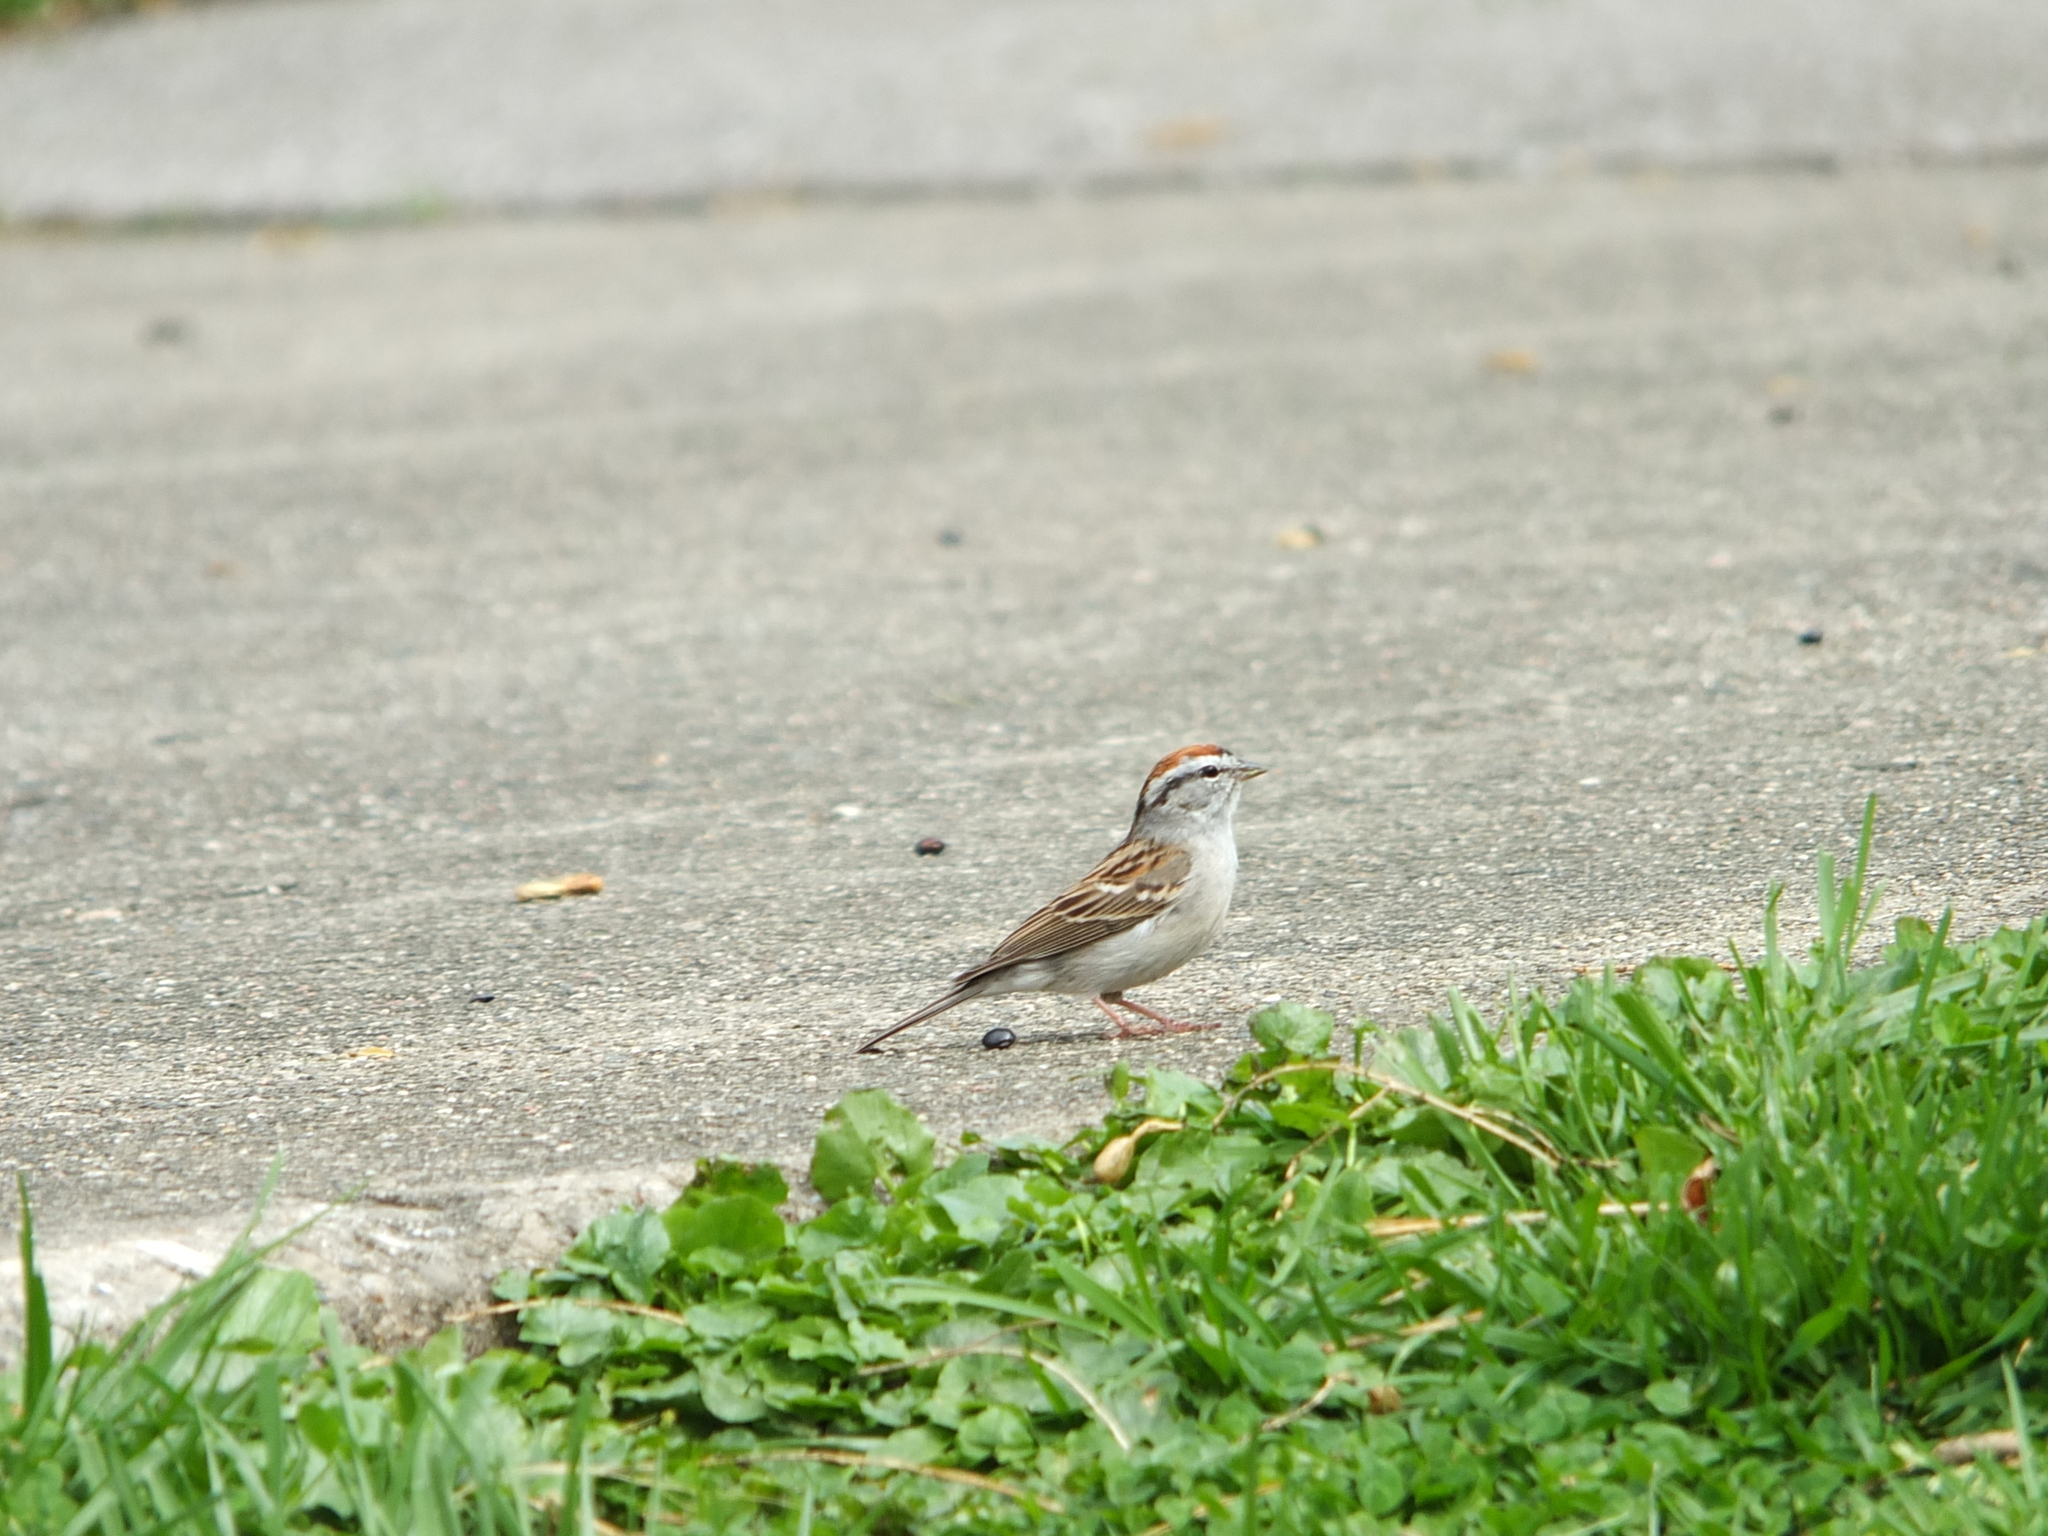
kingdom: Animalia
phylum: Chordata
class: Aves
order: Passeriformes
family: Passerellidae
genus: Spizella
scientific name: Spizella passerina
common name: Chipping sparrow
